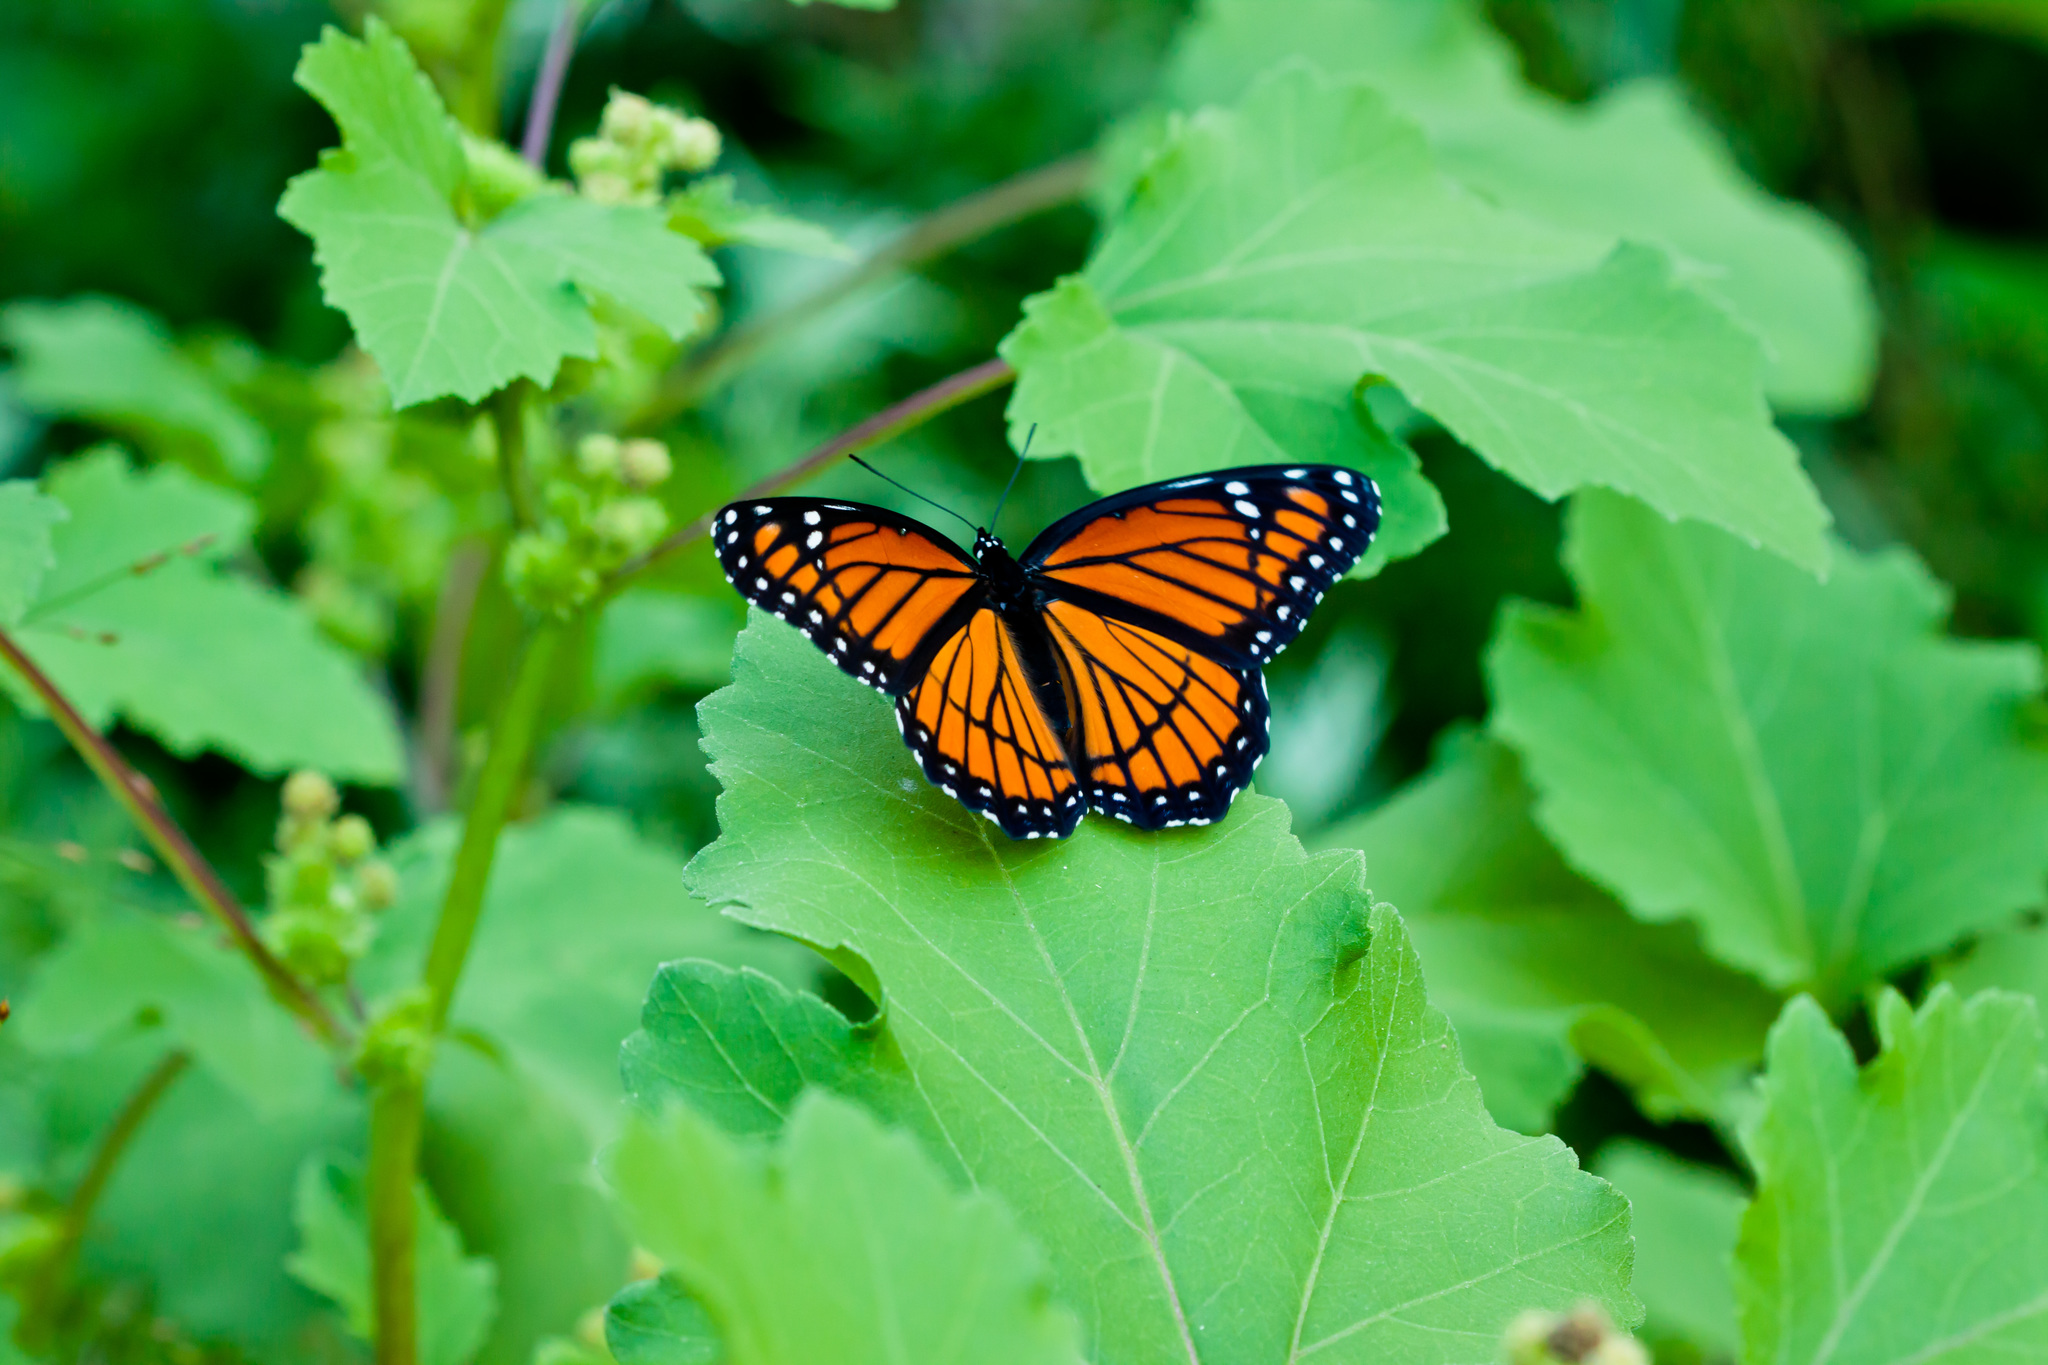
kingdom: Animalia
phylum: Arthropoda
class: Insecta
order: Lepidoptera
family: Nymphalidae
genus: Limenitis
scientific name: Limenitis archippus
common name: Viceroy
